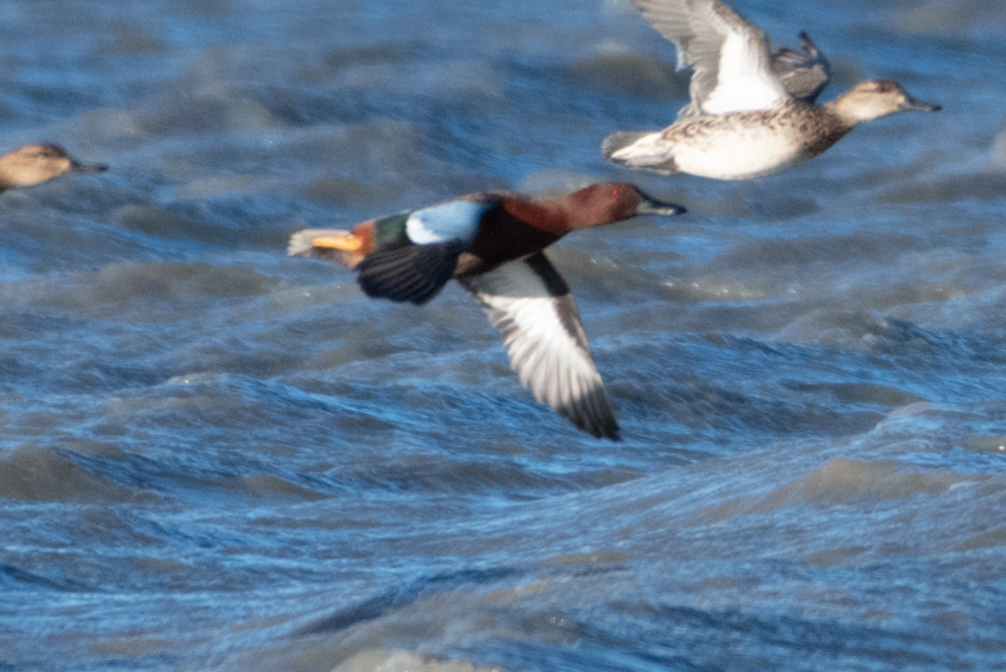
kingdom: Animalia
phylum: Chordata
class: Aves
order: Anseriformes
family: Anatidae
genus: Spatula
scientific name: Spatula cyanoptera
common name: Cinnamon teal
